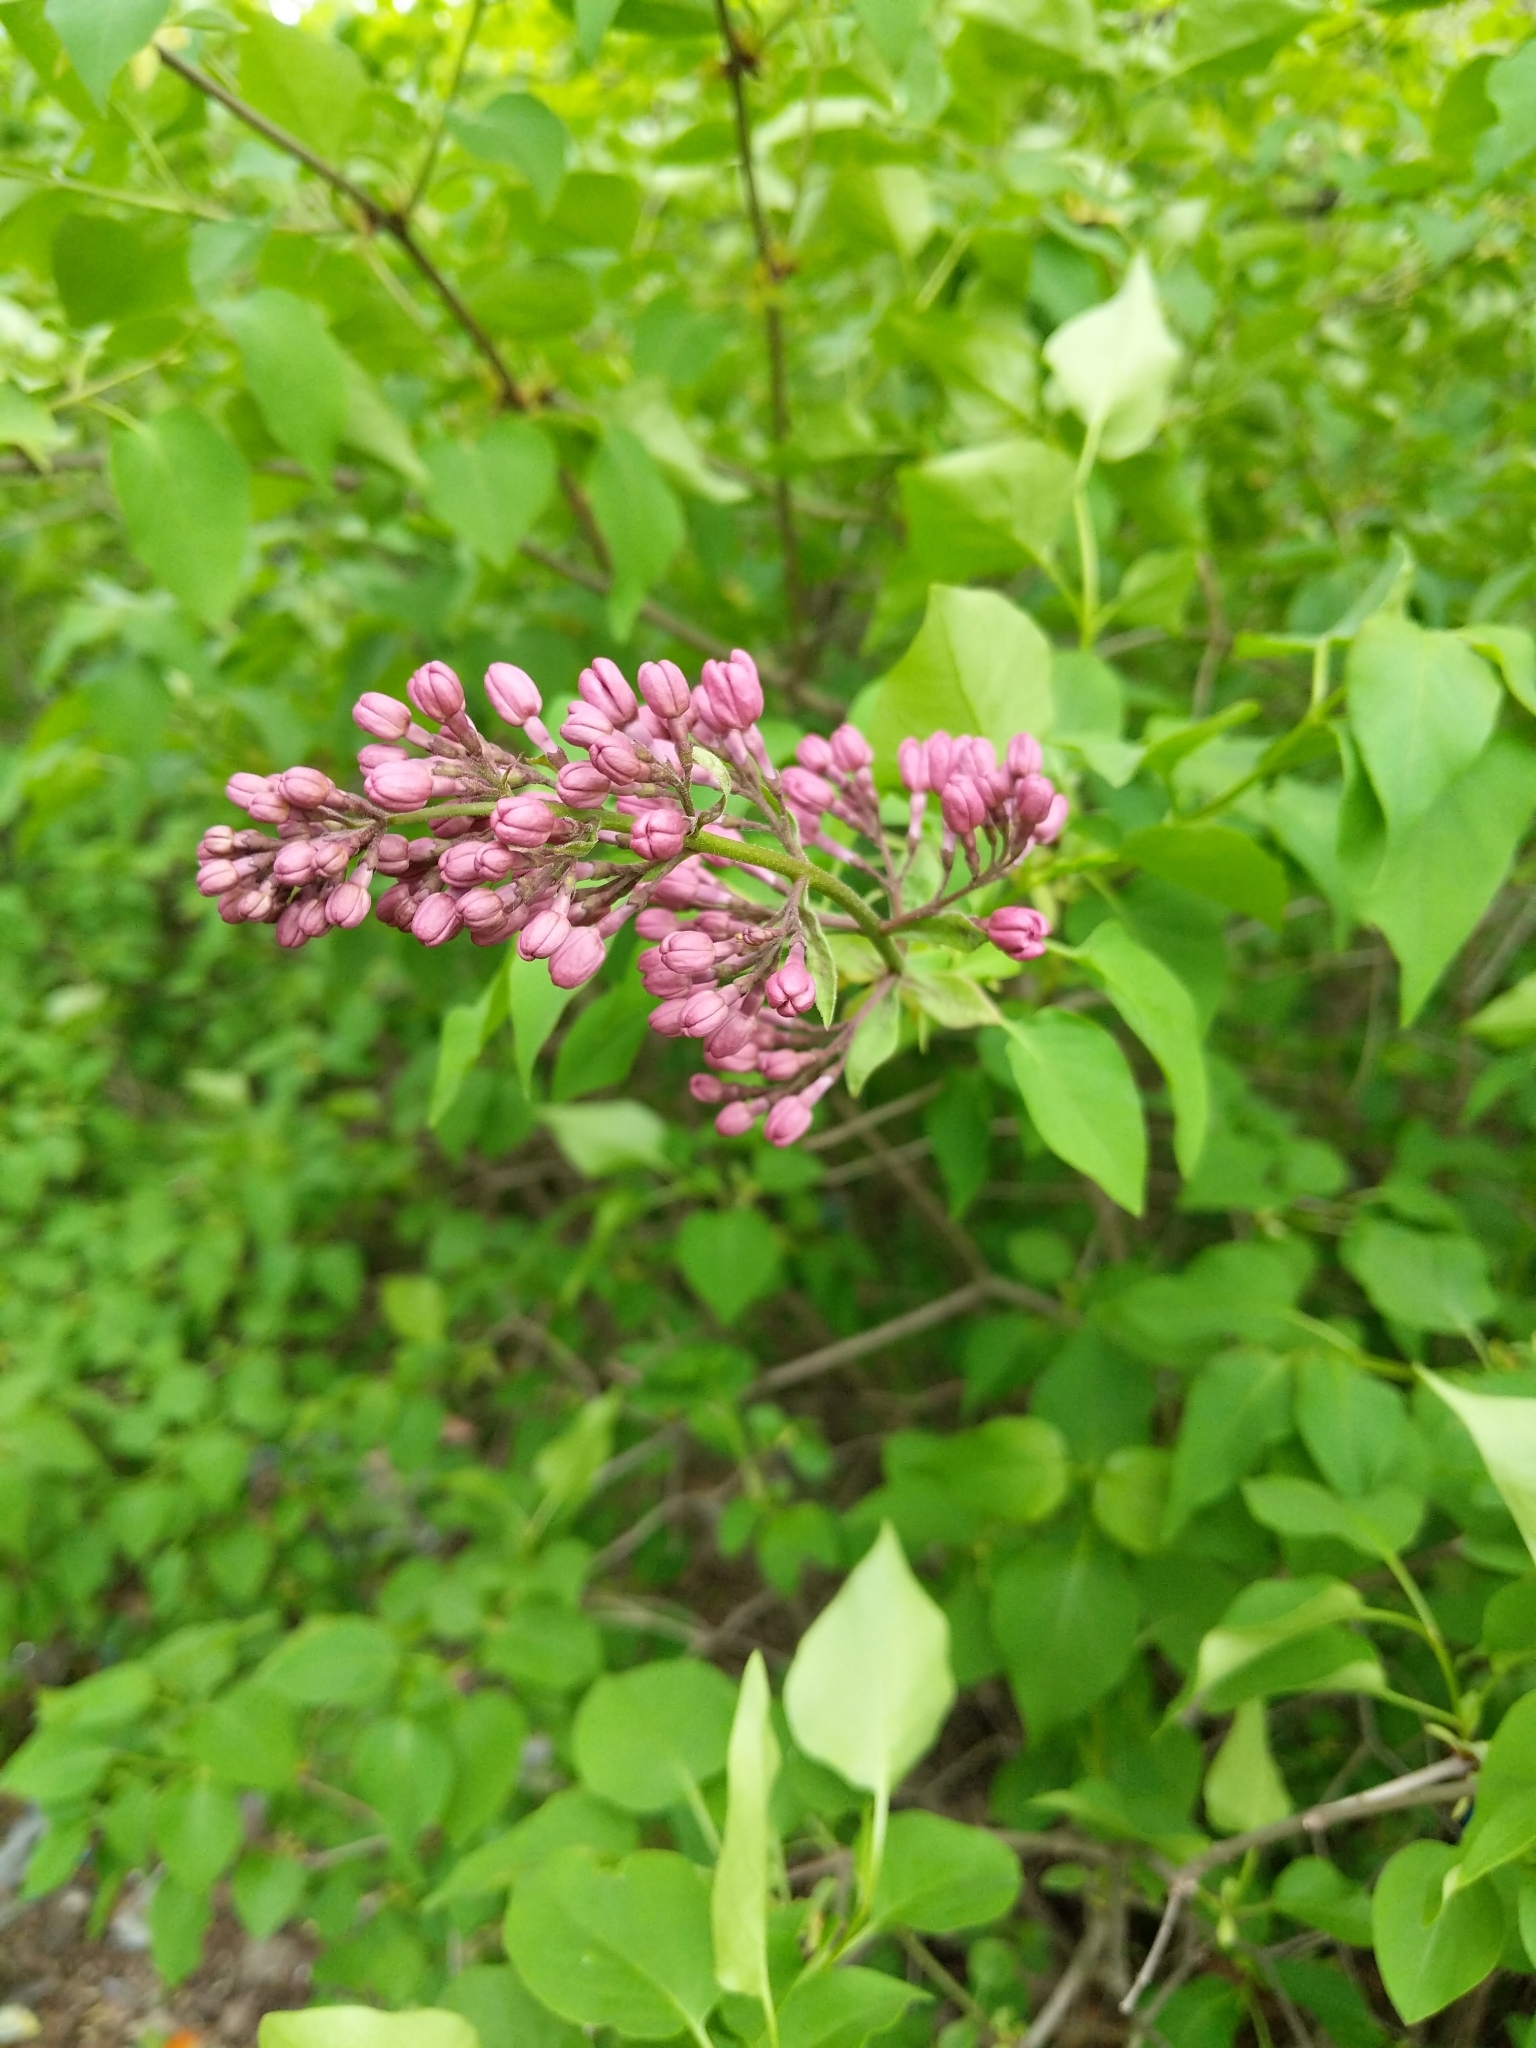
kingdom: Plantae
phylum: Tracheophyta
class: Magnoliopsida
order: Lamiales
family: Oleaceae
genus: Syringa
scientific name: Syringa vulgaris
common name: Common lilac
